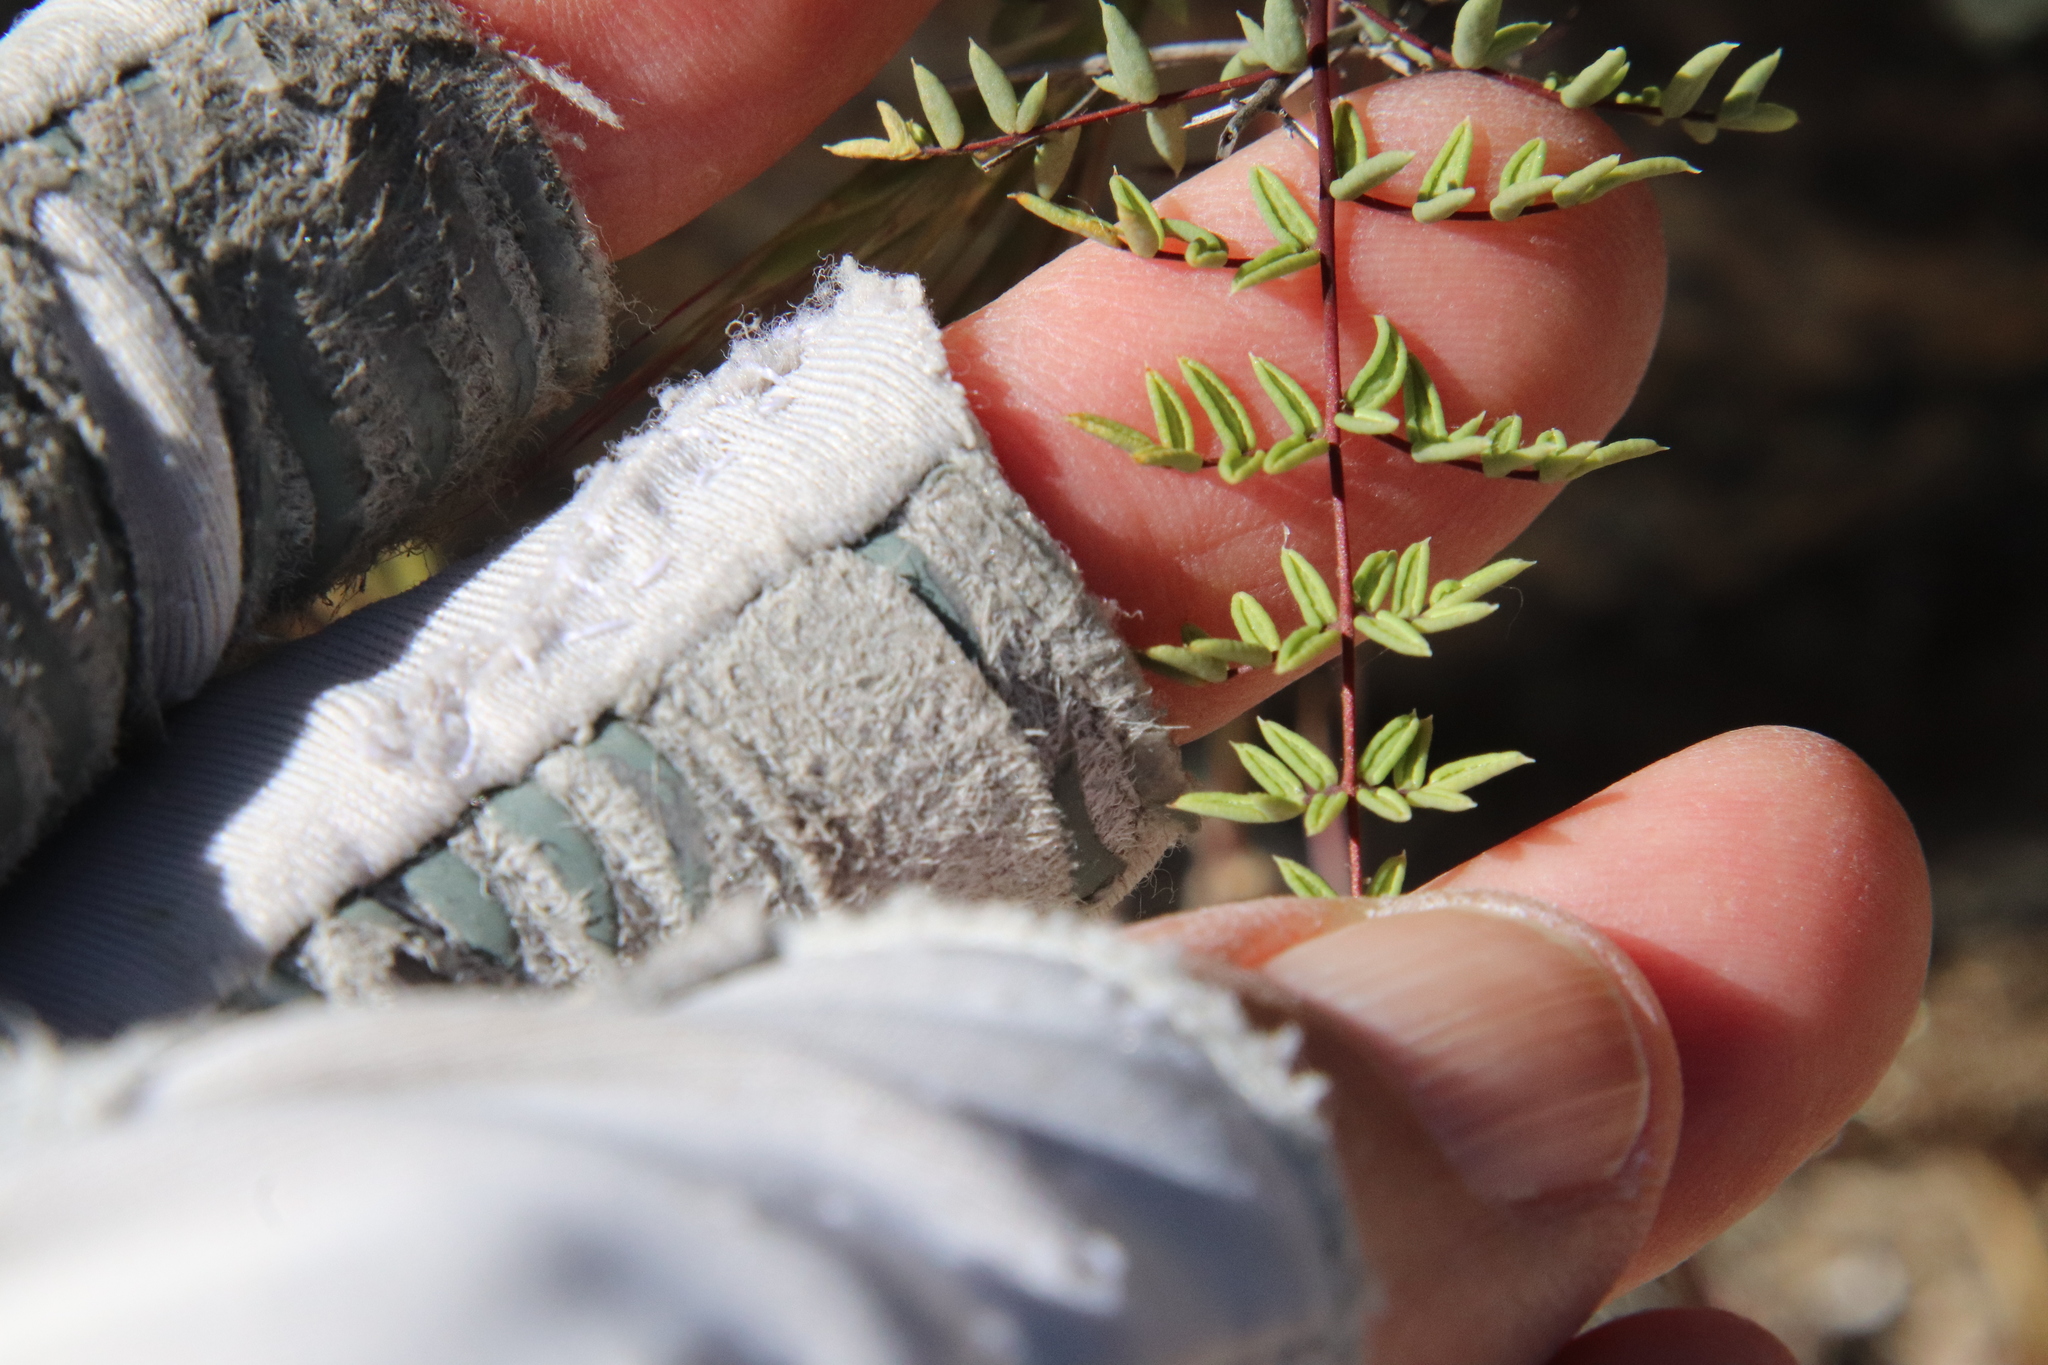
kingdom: Plantae
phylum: Tracheophyta
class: Polypodiopsida
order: Polypodiales
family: Pteridaceae
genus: Pellaea
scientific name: Pellaea mucronata
